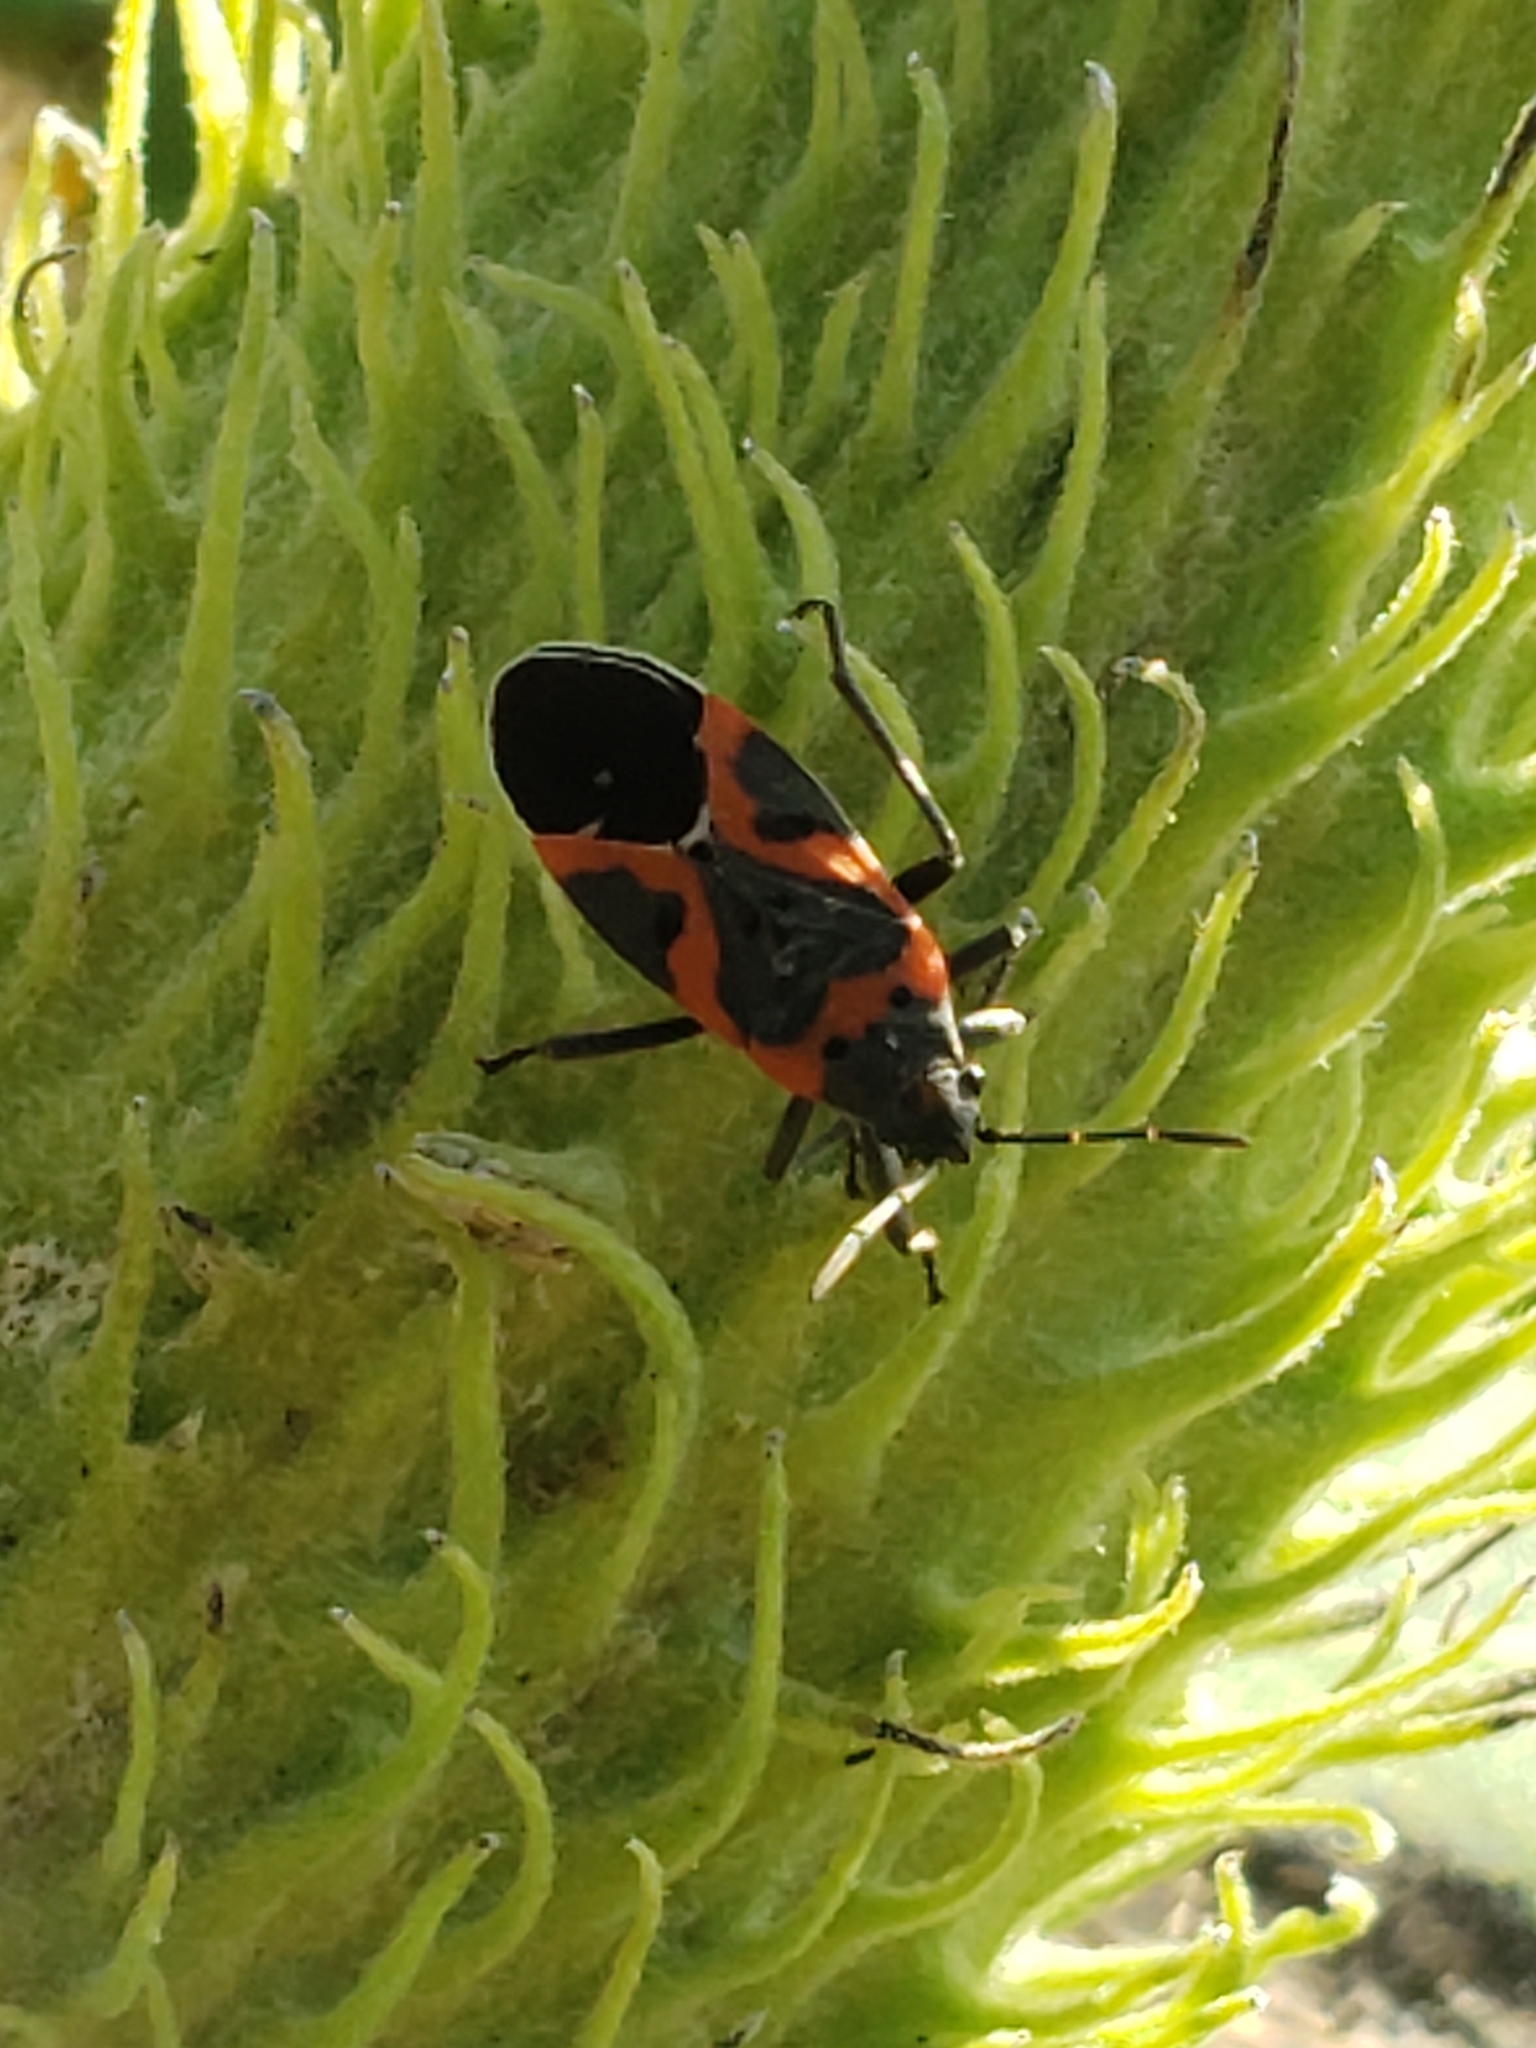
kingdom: Animalia
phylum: Arthropoda
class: Insecta
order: Hemiptera
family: Lygaeidae
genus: Lygaeus
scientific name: Lygaeus kalmii
